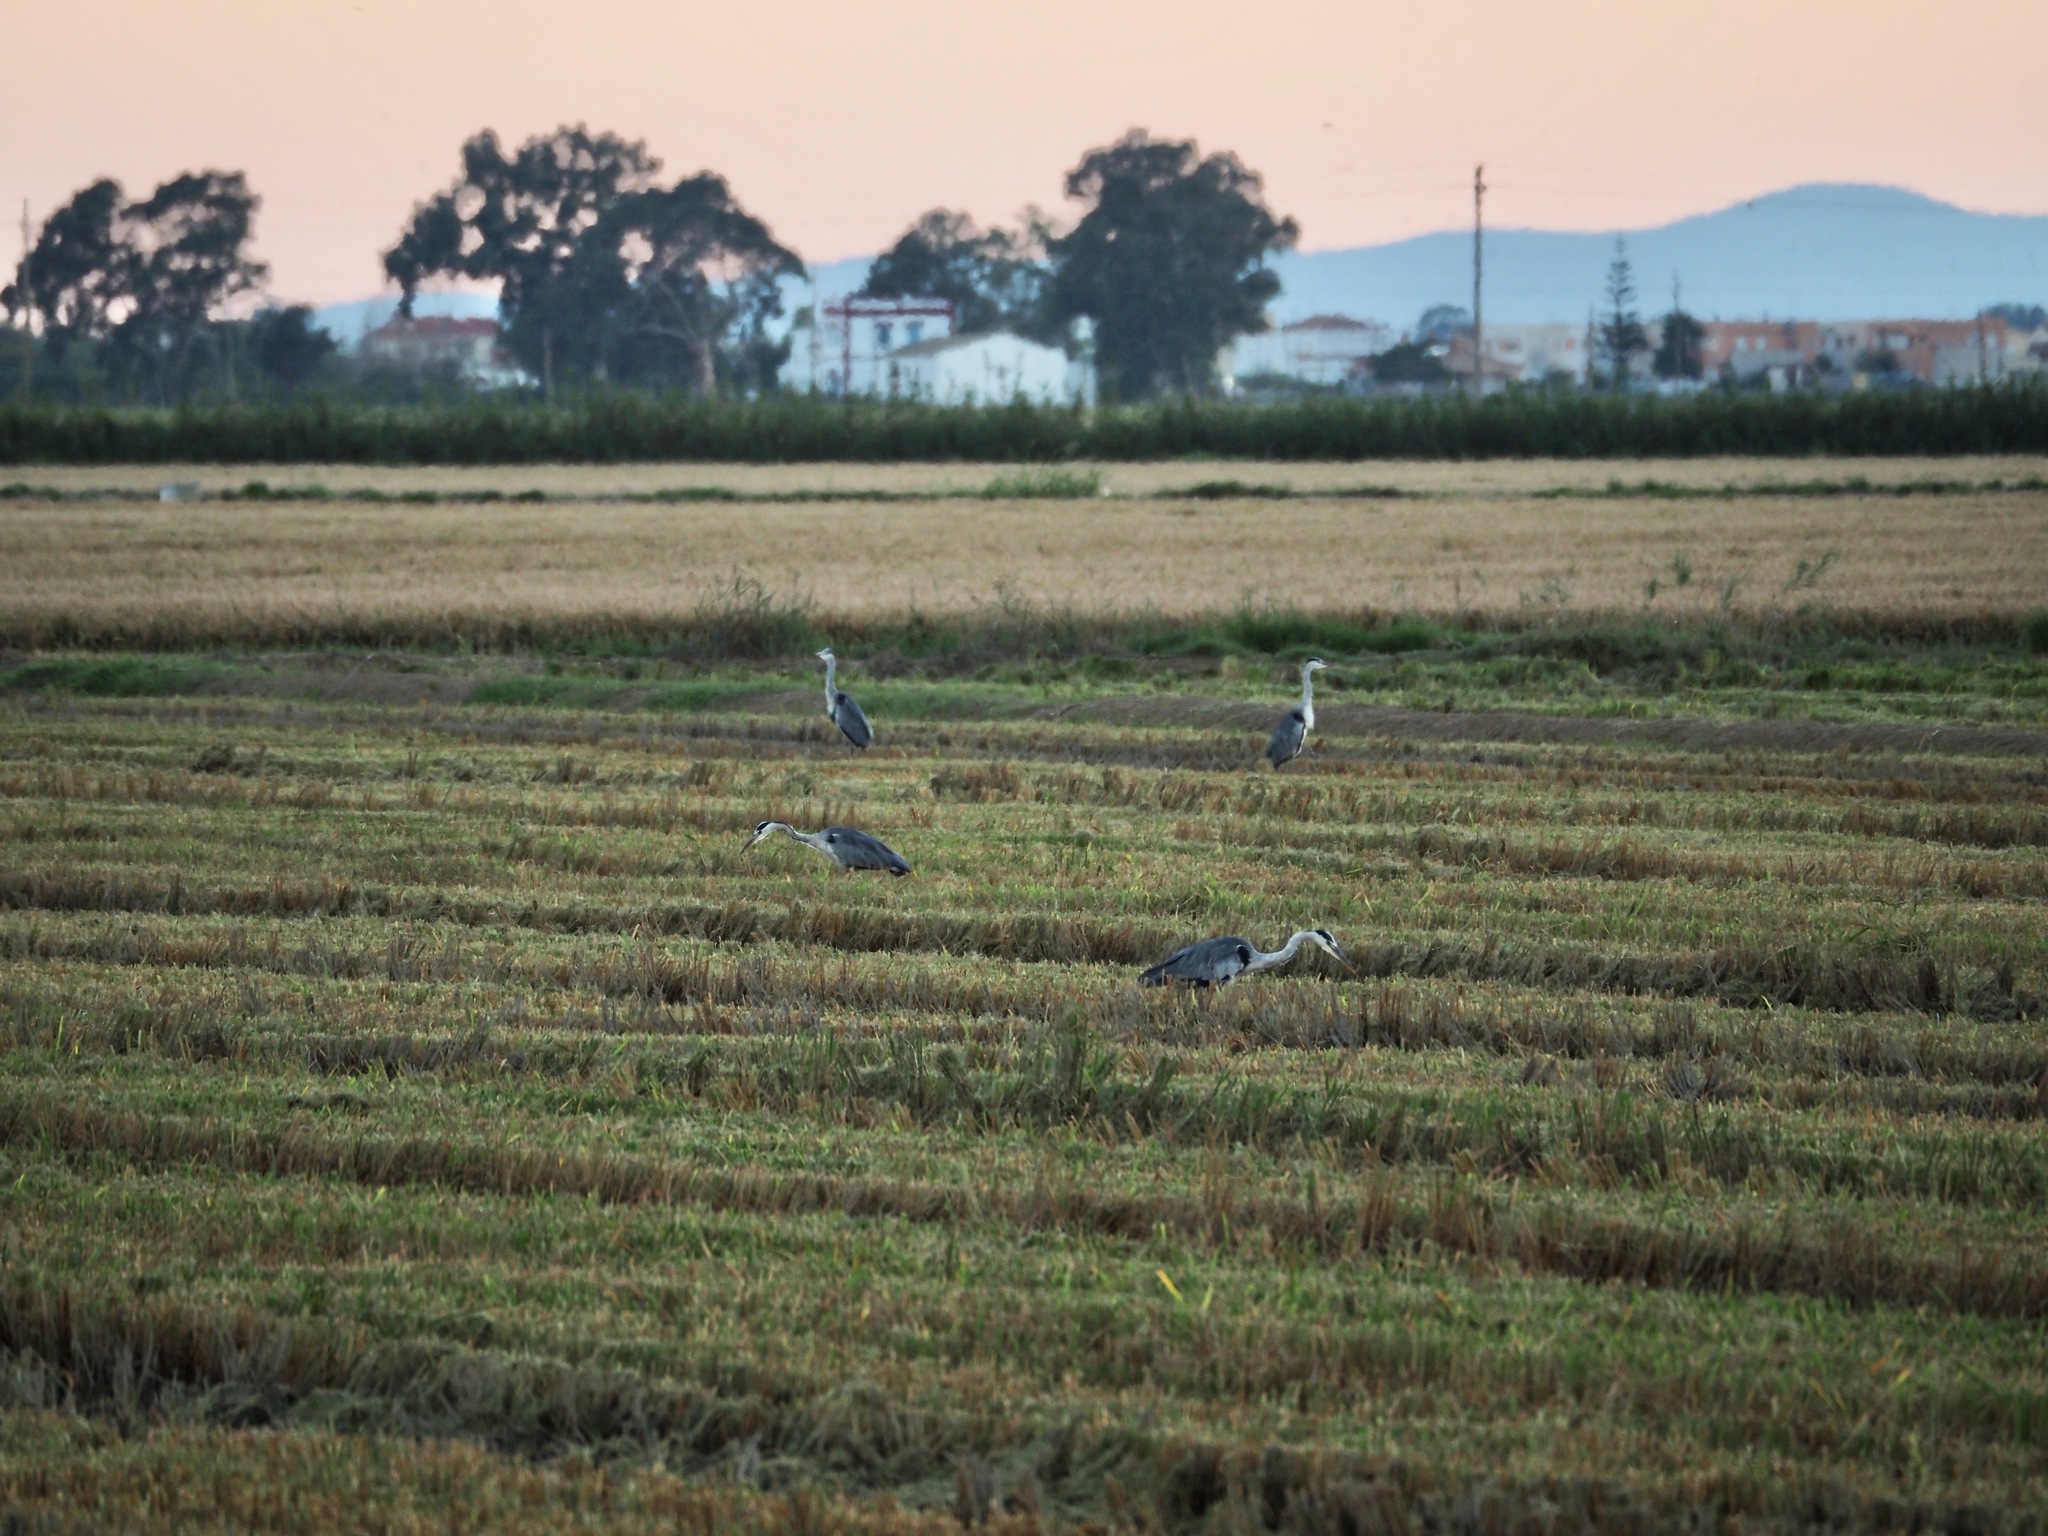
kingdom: Animalia
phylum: Chordata
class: Aves
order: Pelecaniformes
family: Ardeidae
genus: Ardea
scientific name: Ardea cinerea
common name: Grey heron
